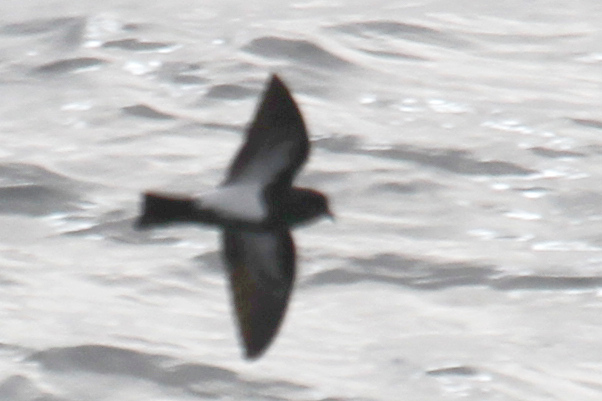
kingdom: Animalia
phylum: Chordata
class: Aves
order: Procellariiformes
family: Hydrobatidae
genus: Fregetta
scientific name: Fregetta tropica
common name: Black-bellied storm-petrel
